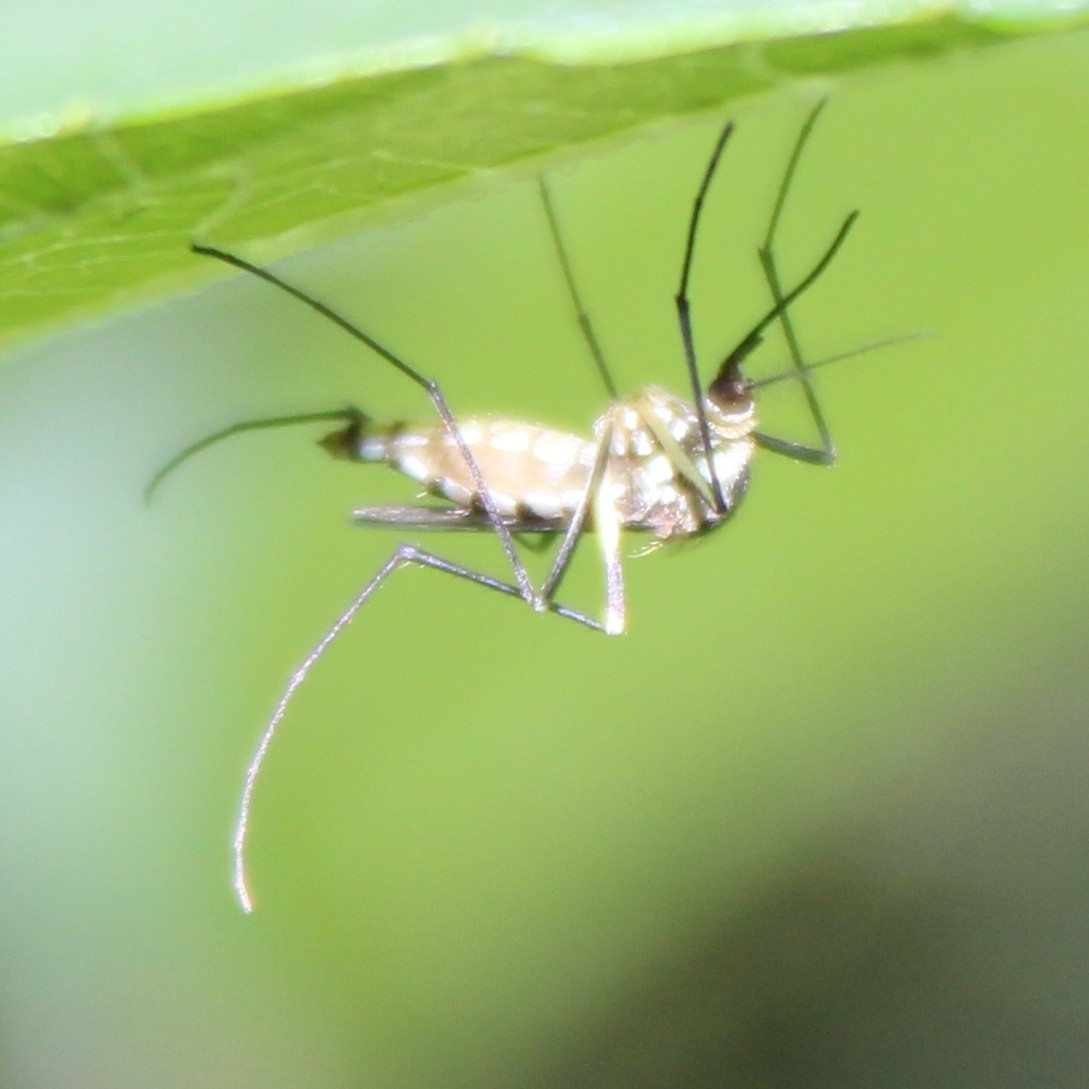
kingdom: Animalia
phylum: Arthropoda
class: Insecta
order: Diptera
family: Culicidae
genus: Aedes
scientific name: Aedes triseriatus
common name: Eastern treehole mosquito
